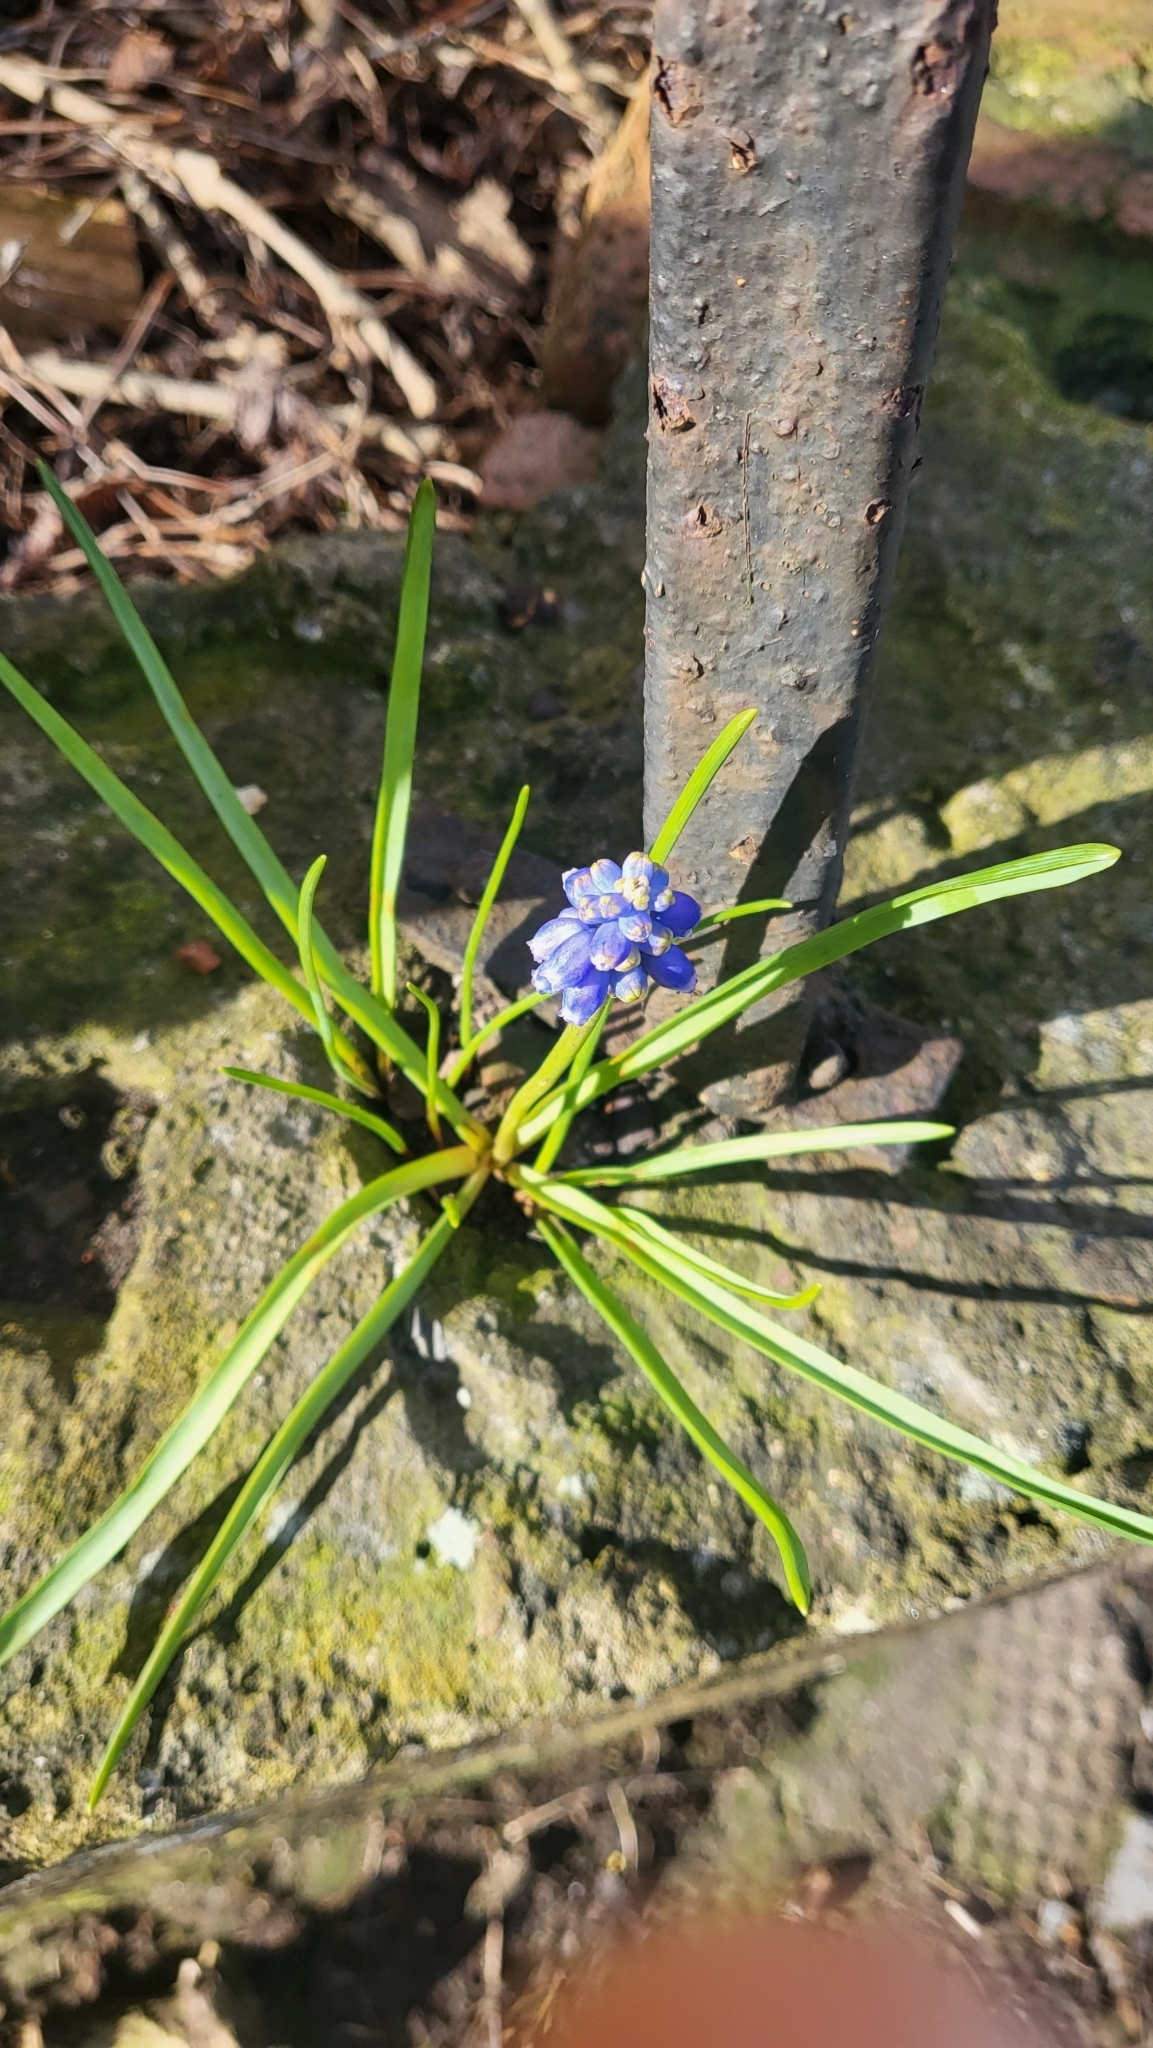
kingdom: Plantae
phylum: Tracheophyta
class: Liliopsida
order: Asparagales
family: Asparagaceae
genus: Muscari
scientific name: Muscari armeniacum
